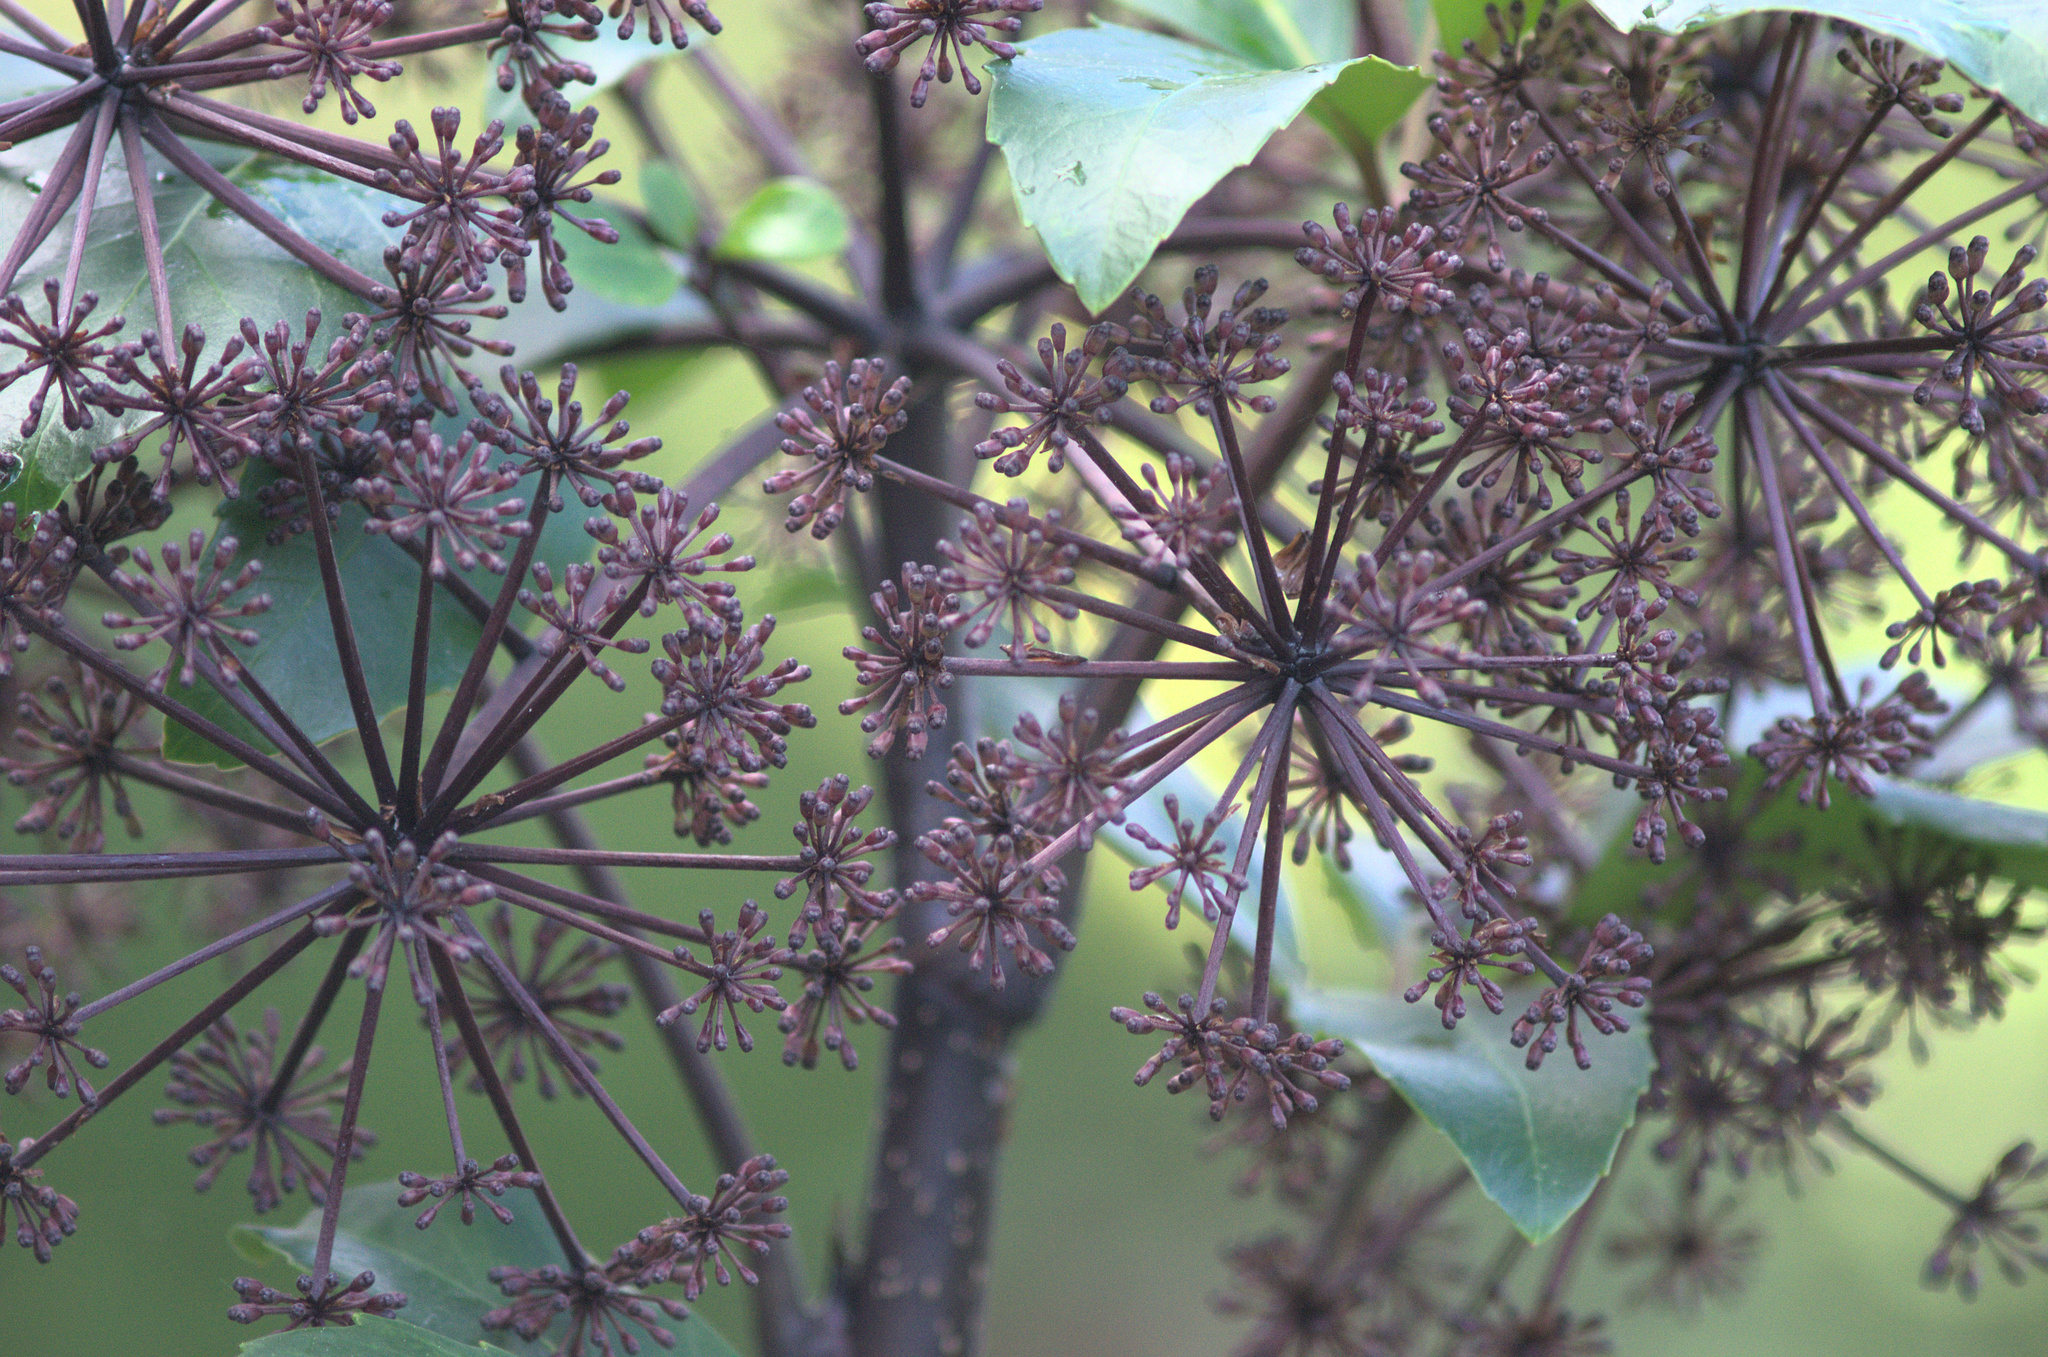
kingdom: Plantae
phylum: Tracheophyta
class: Magnoliopsida
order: Apiales
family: Araliaceae
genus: Neopanax
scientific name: Neopanax arboreus
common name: Five-fingers
